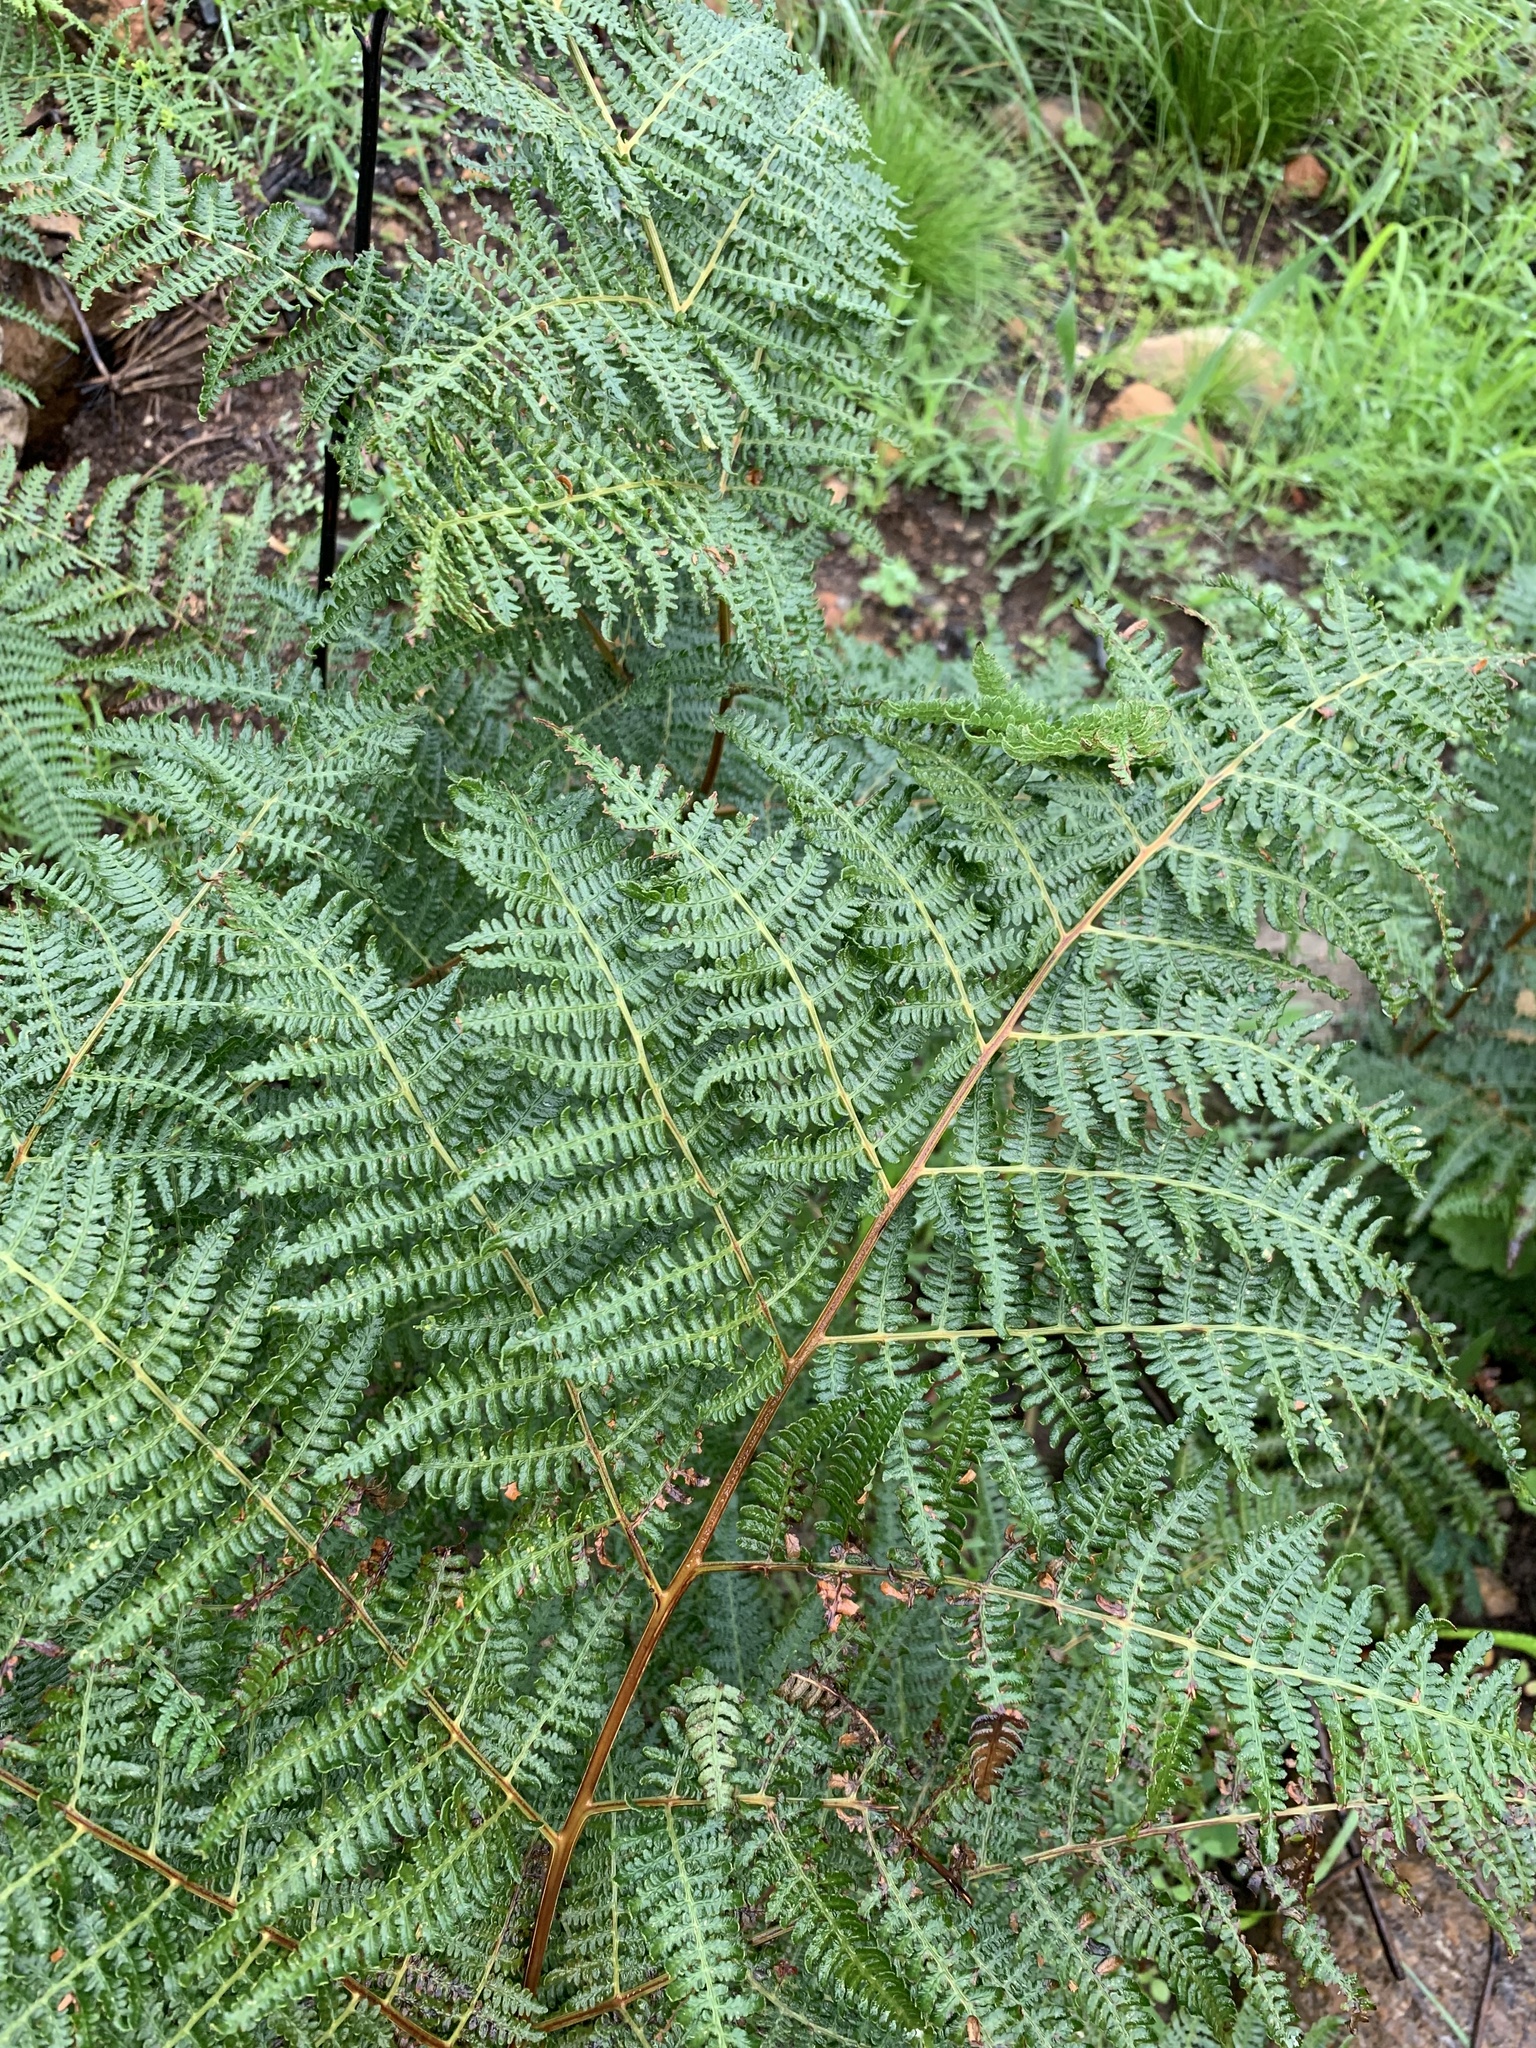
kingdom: Plantae
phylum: Tracheophyta
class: Polypodiopsida
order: Polypodiales
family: Dennstaedtiaceae
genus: Pteridium
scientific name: Pteridium aquilinum
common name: Bracken
